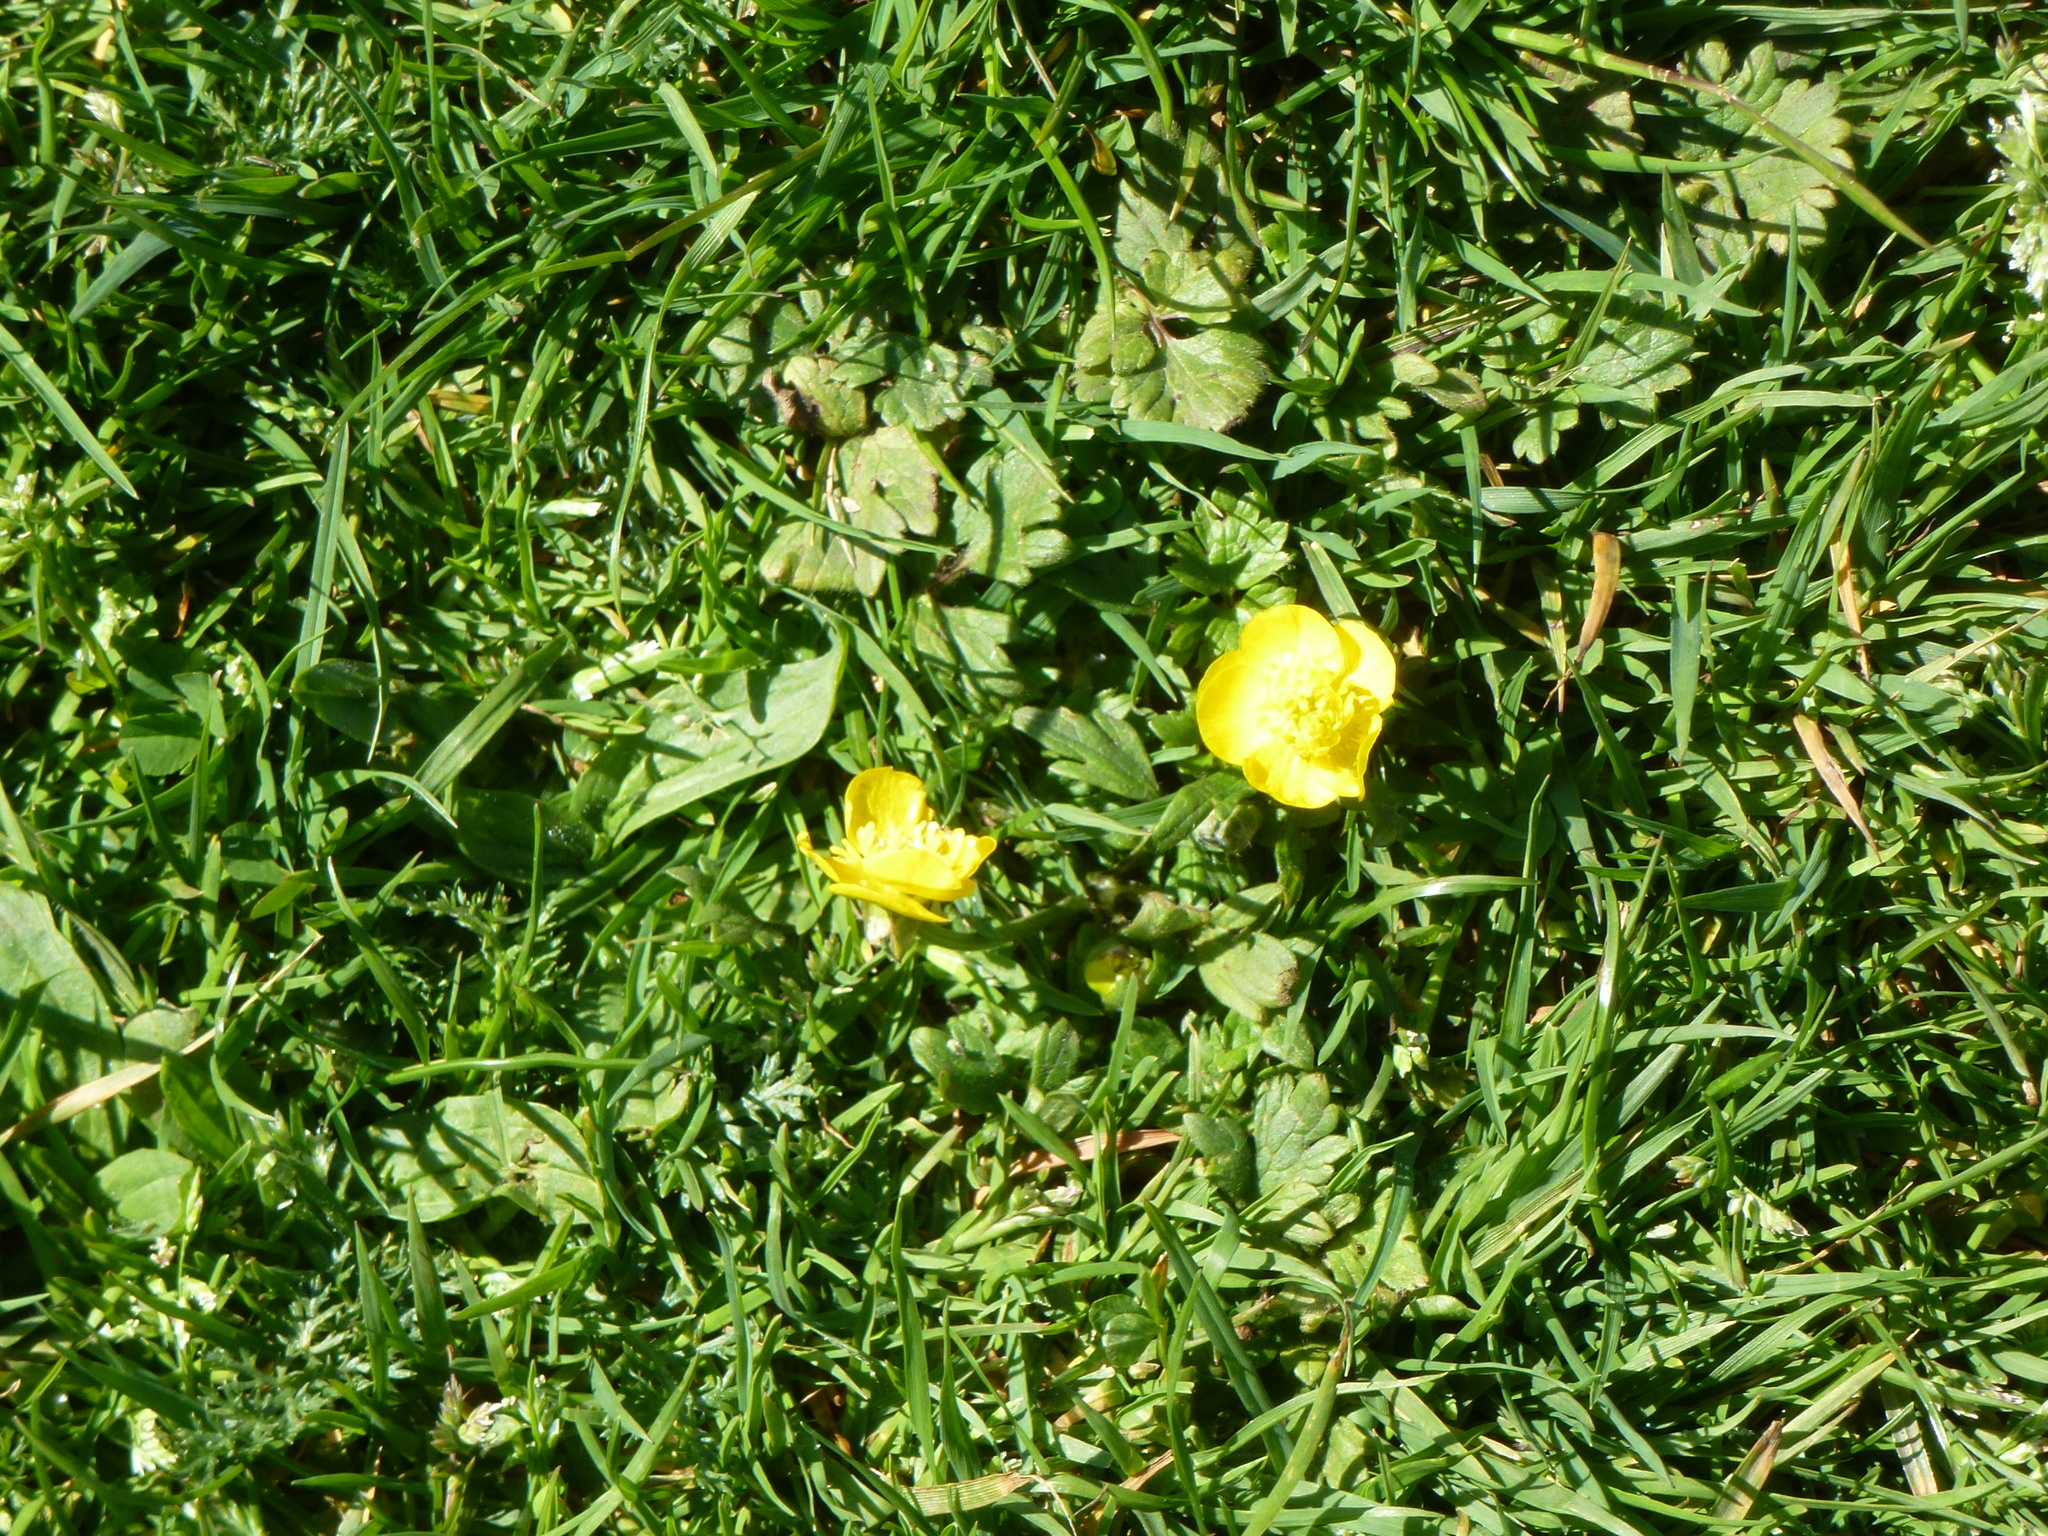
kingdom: Plantae
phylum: Tracheophyta
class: Magnoliopsida
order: Ranunculales
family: Ranunculaceae
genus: Ranunculus
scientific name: Ranunculus repens
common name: Creeping buttercup
